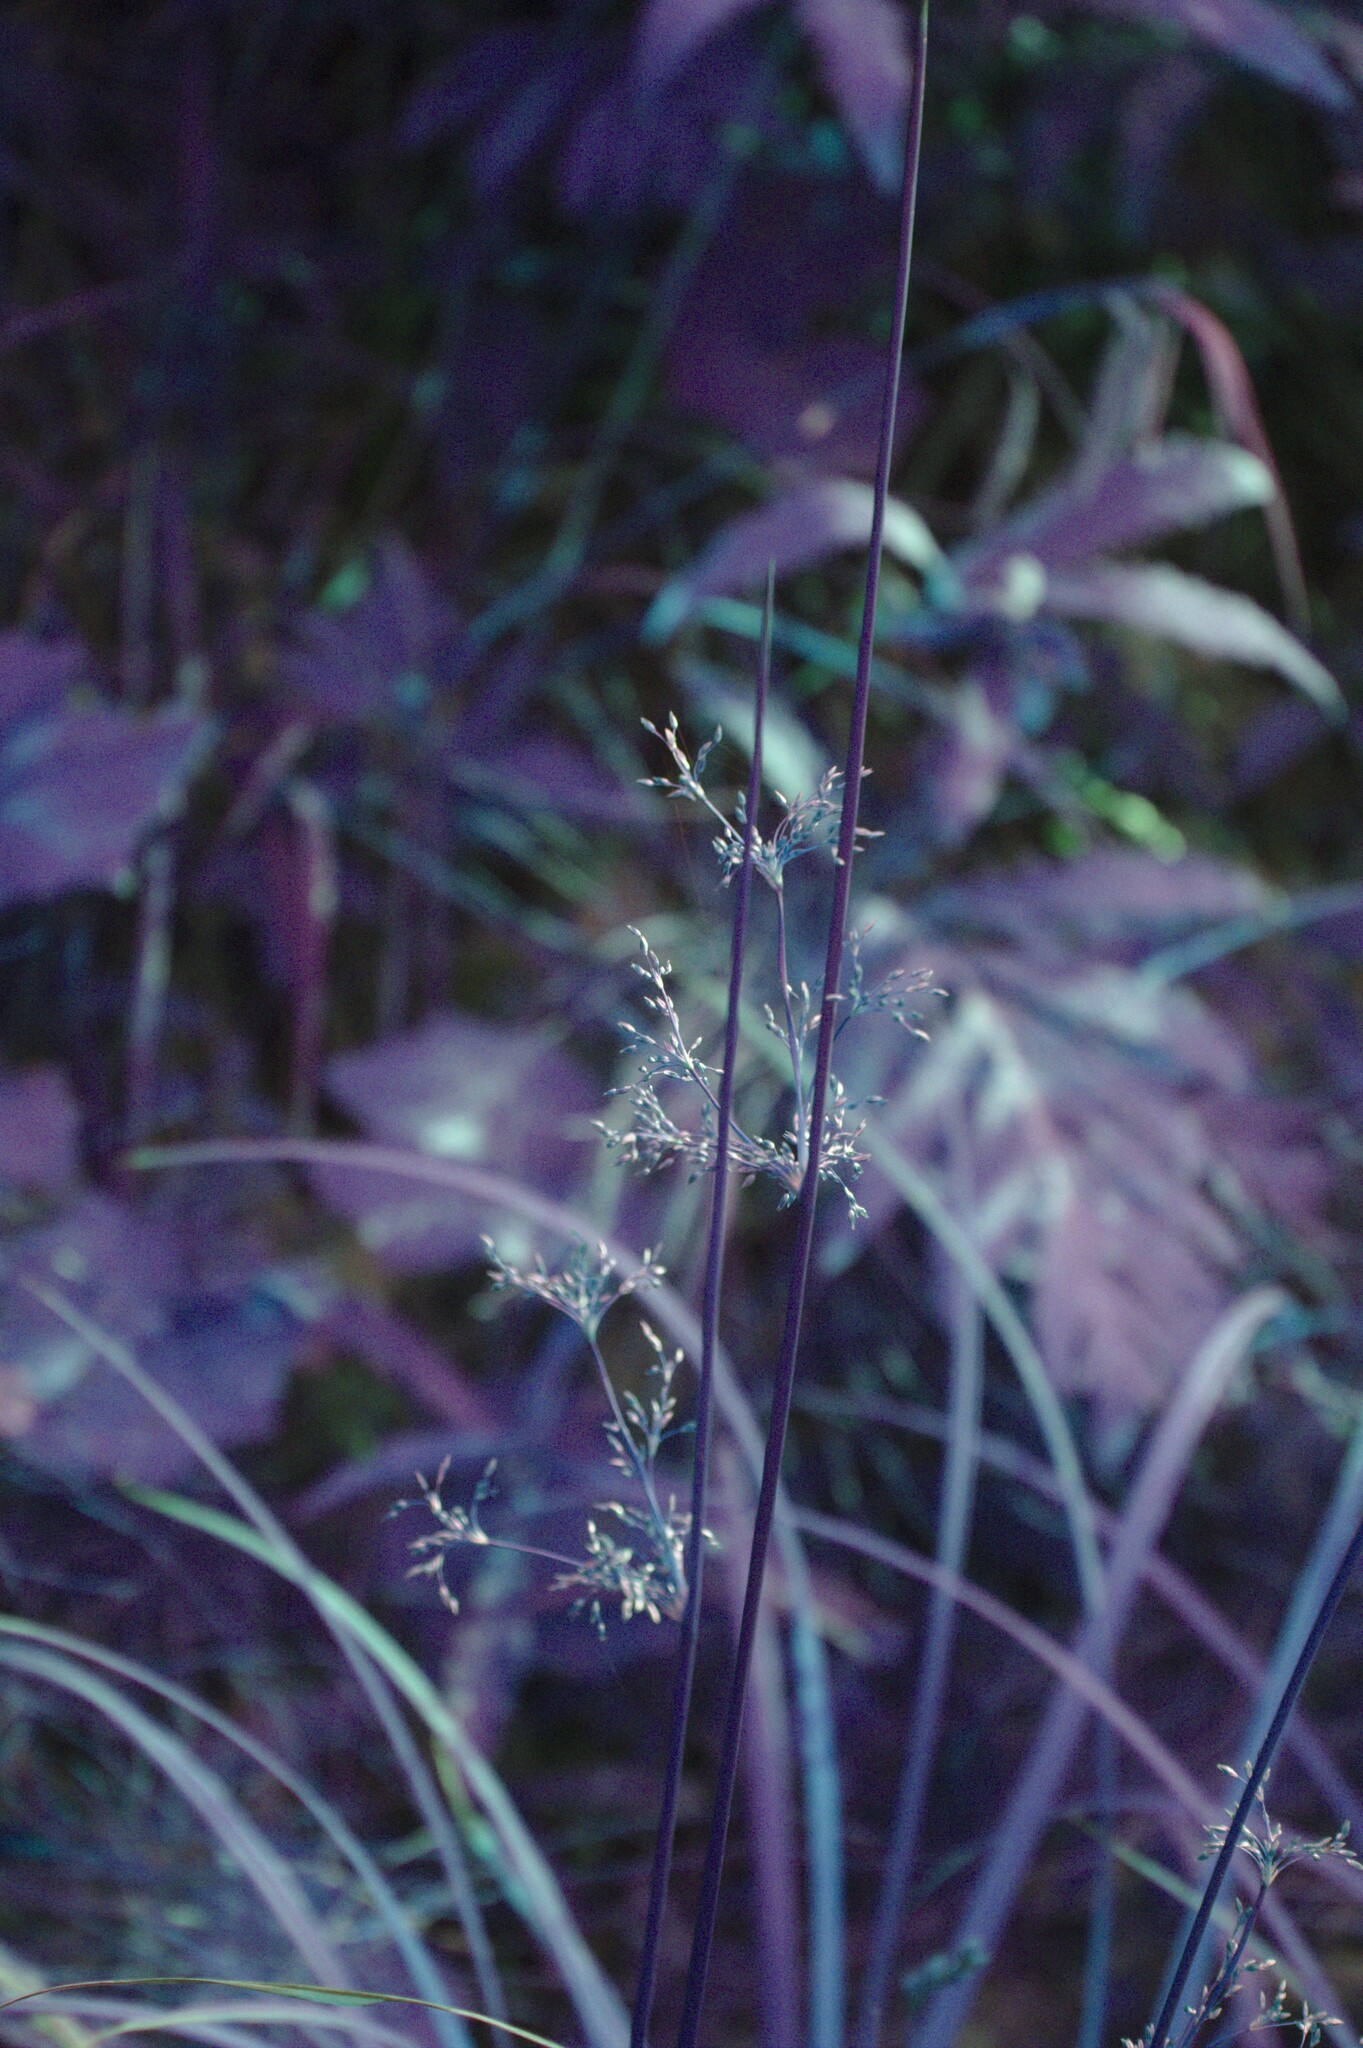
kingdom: Plantae
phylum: Tracheophyta
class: Liliopsida
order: Poales
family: Juncaceae
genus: Juncus
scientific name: Juncus effusus
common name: Soft rush
